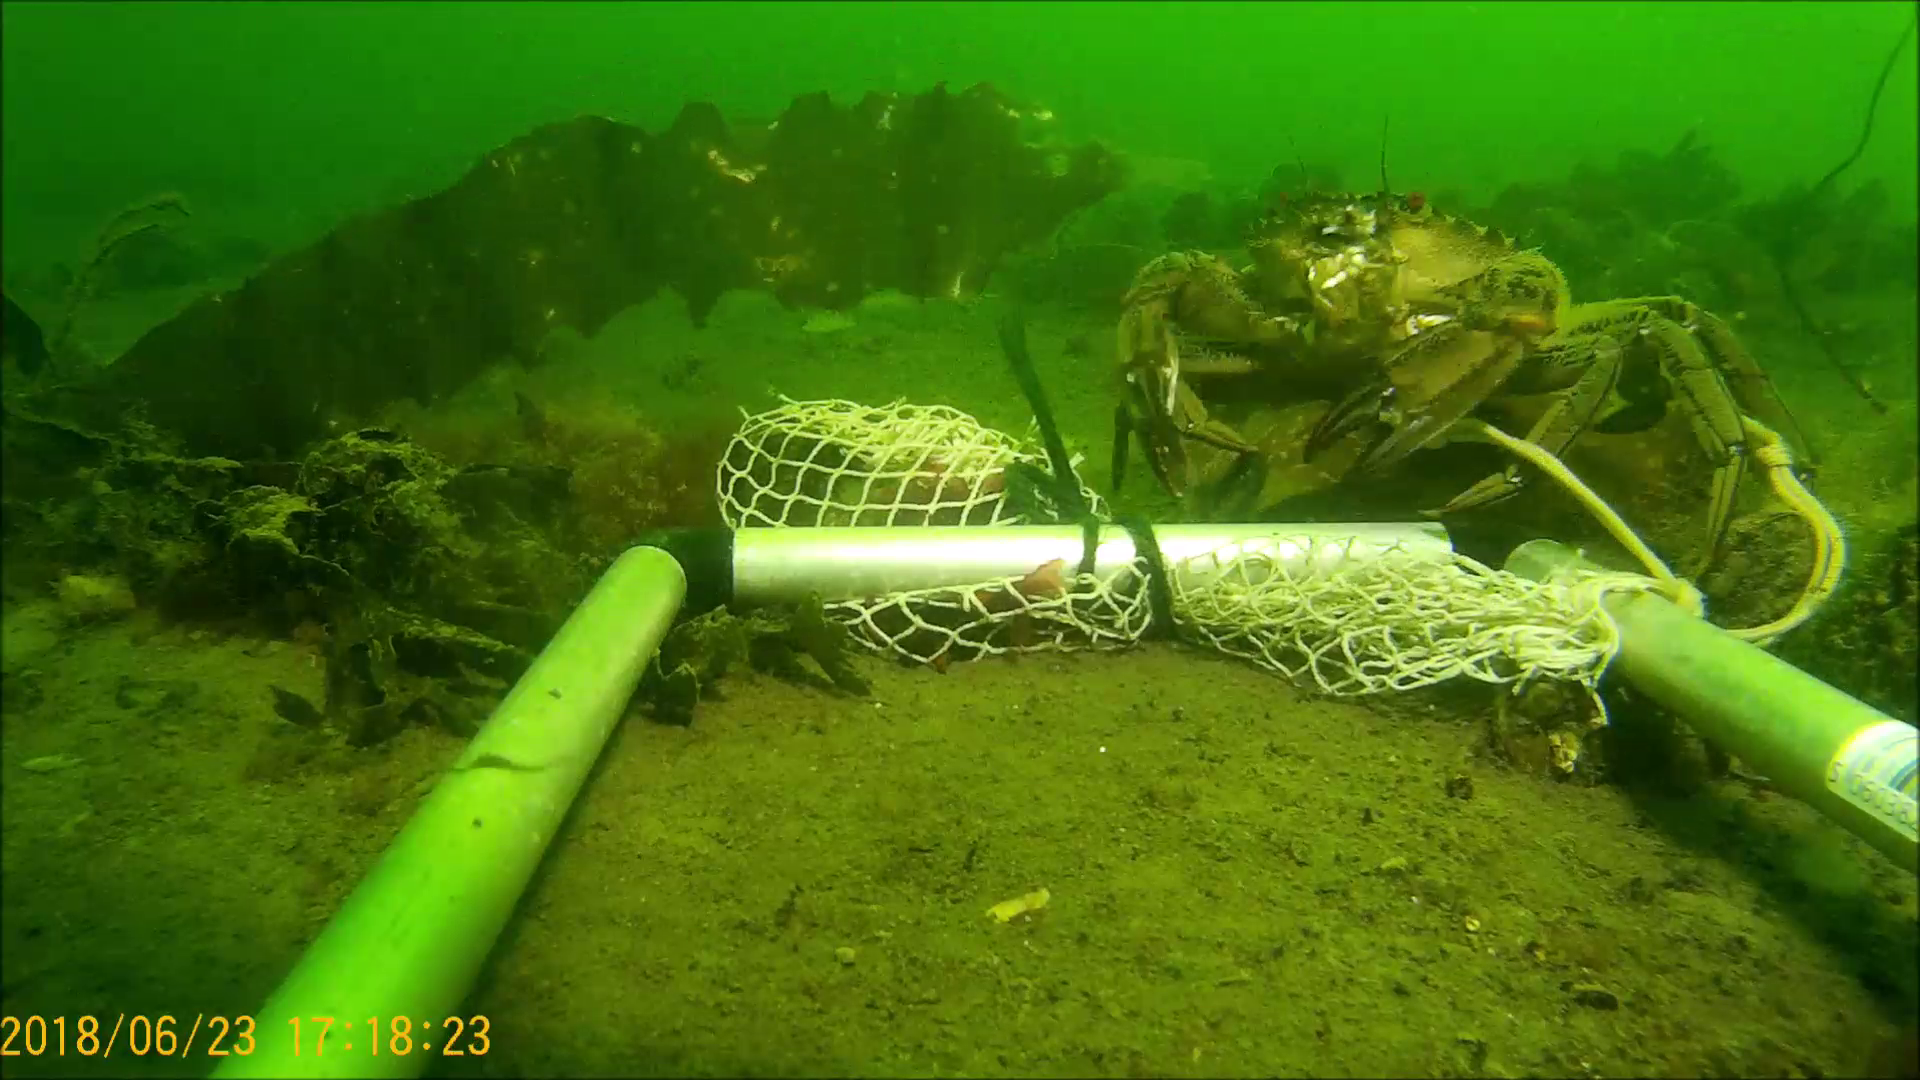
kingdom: Animalia
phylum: Arthropoda
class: Malacostraca
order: Decapoda
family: Polybiidae
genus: Necora
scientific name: Necora puber
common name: Velvet swimming crab
